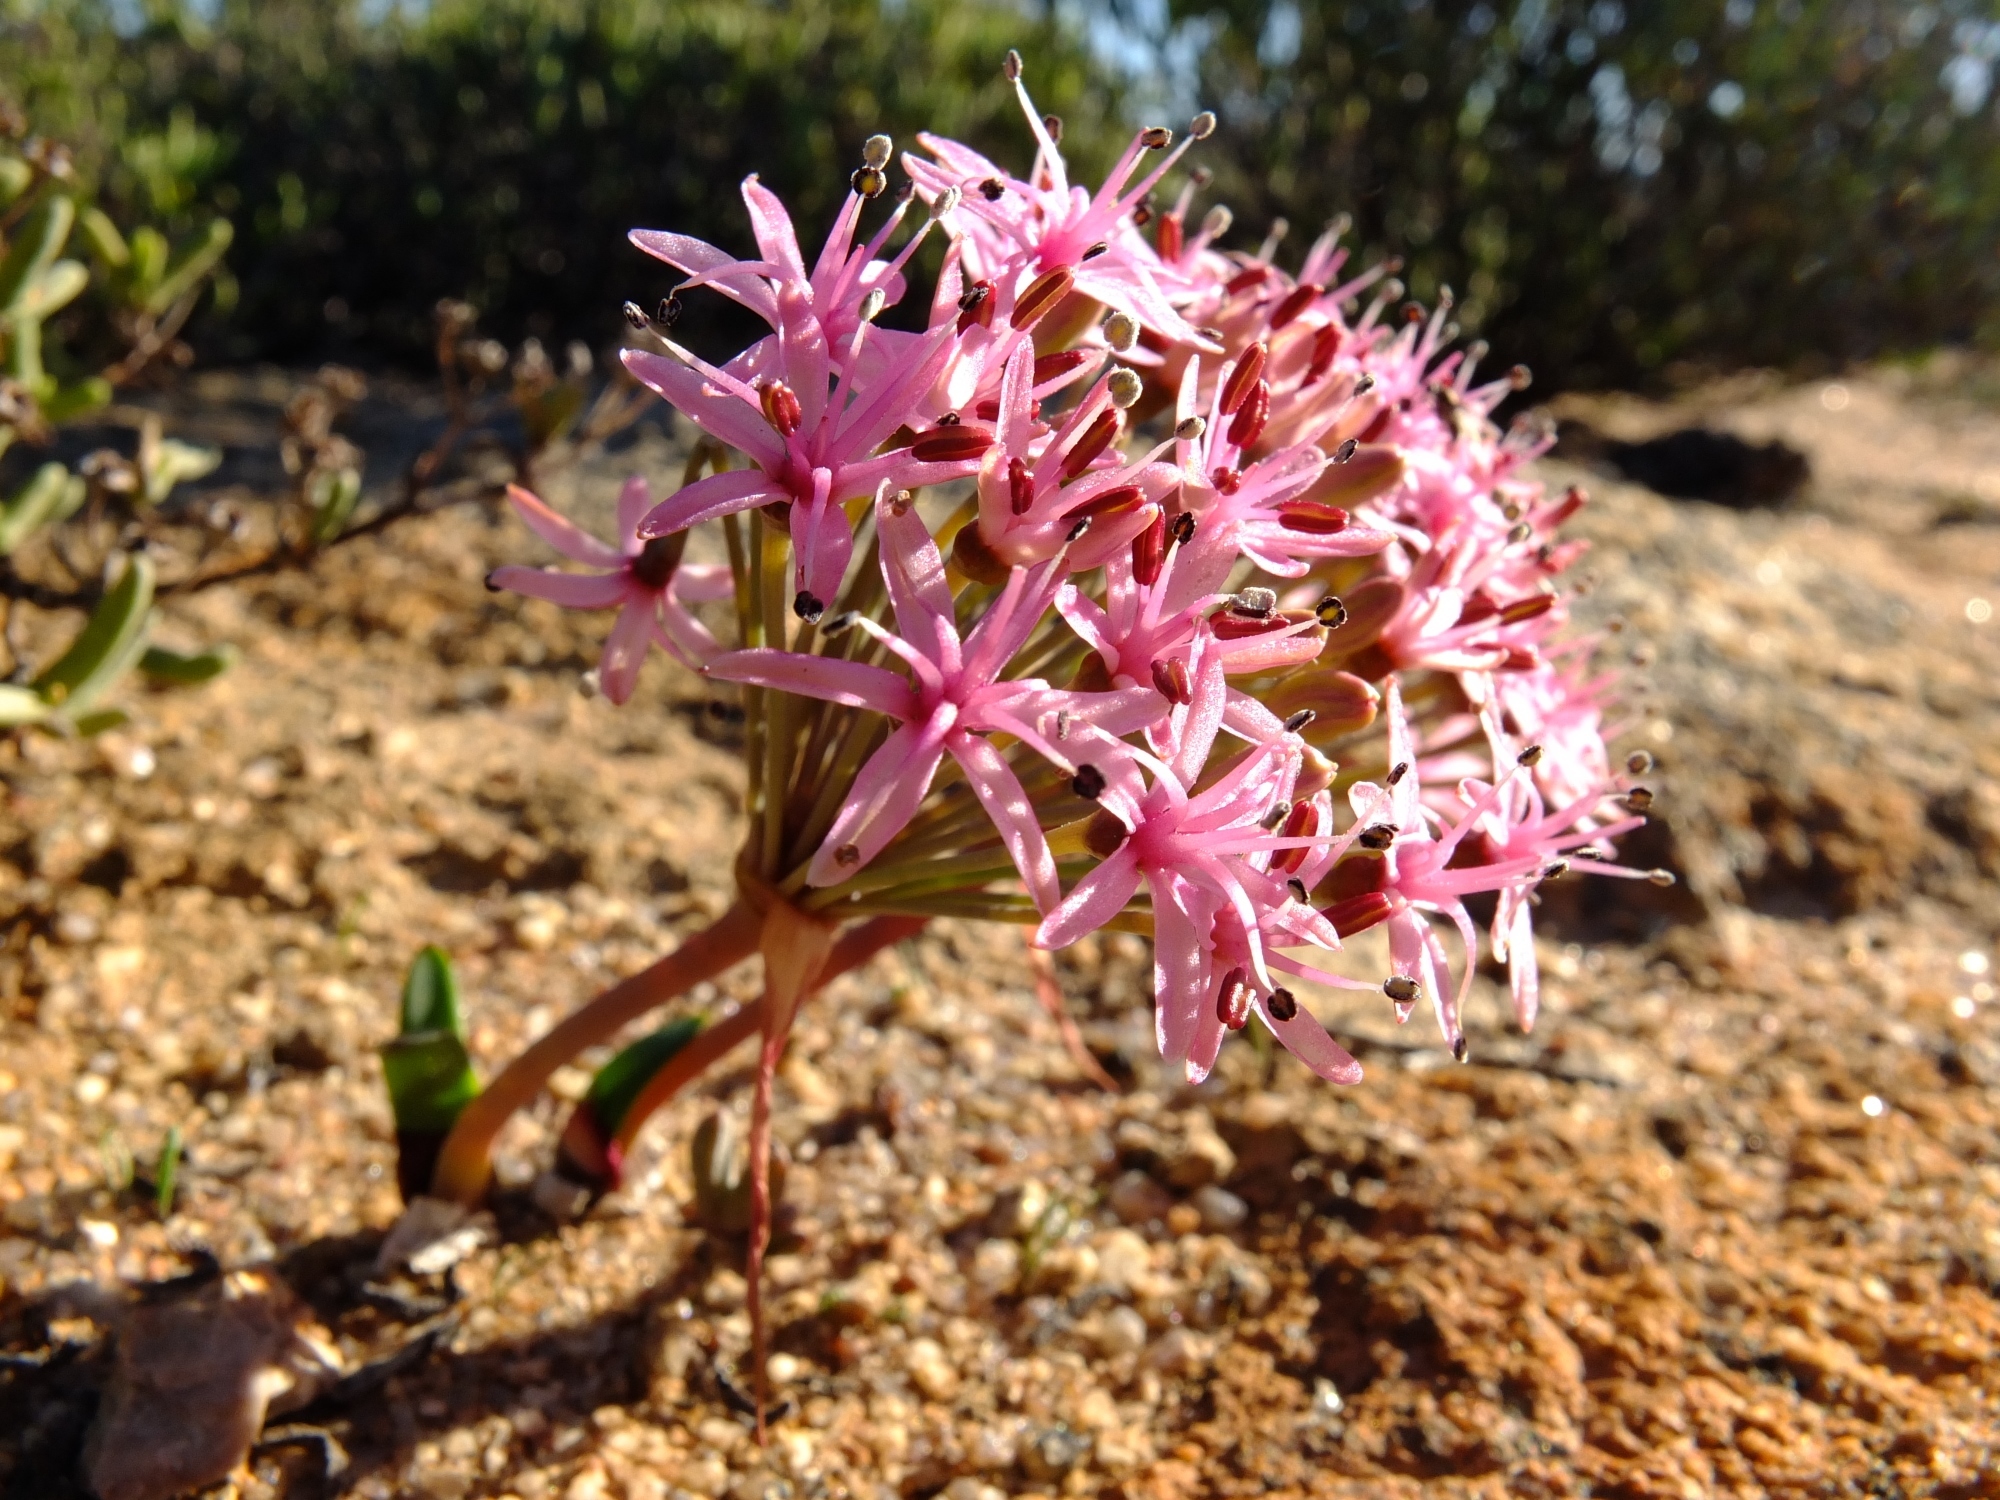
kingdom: Plantae
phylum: Tracheophyta
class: Liliopsida
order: Asparagales
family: Amaryllidaceae
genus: Hessea
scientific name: Hessea breviflora
